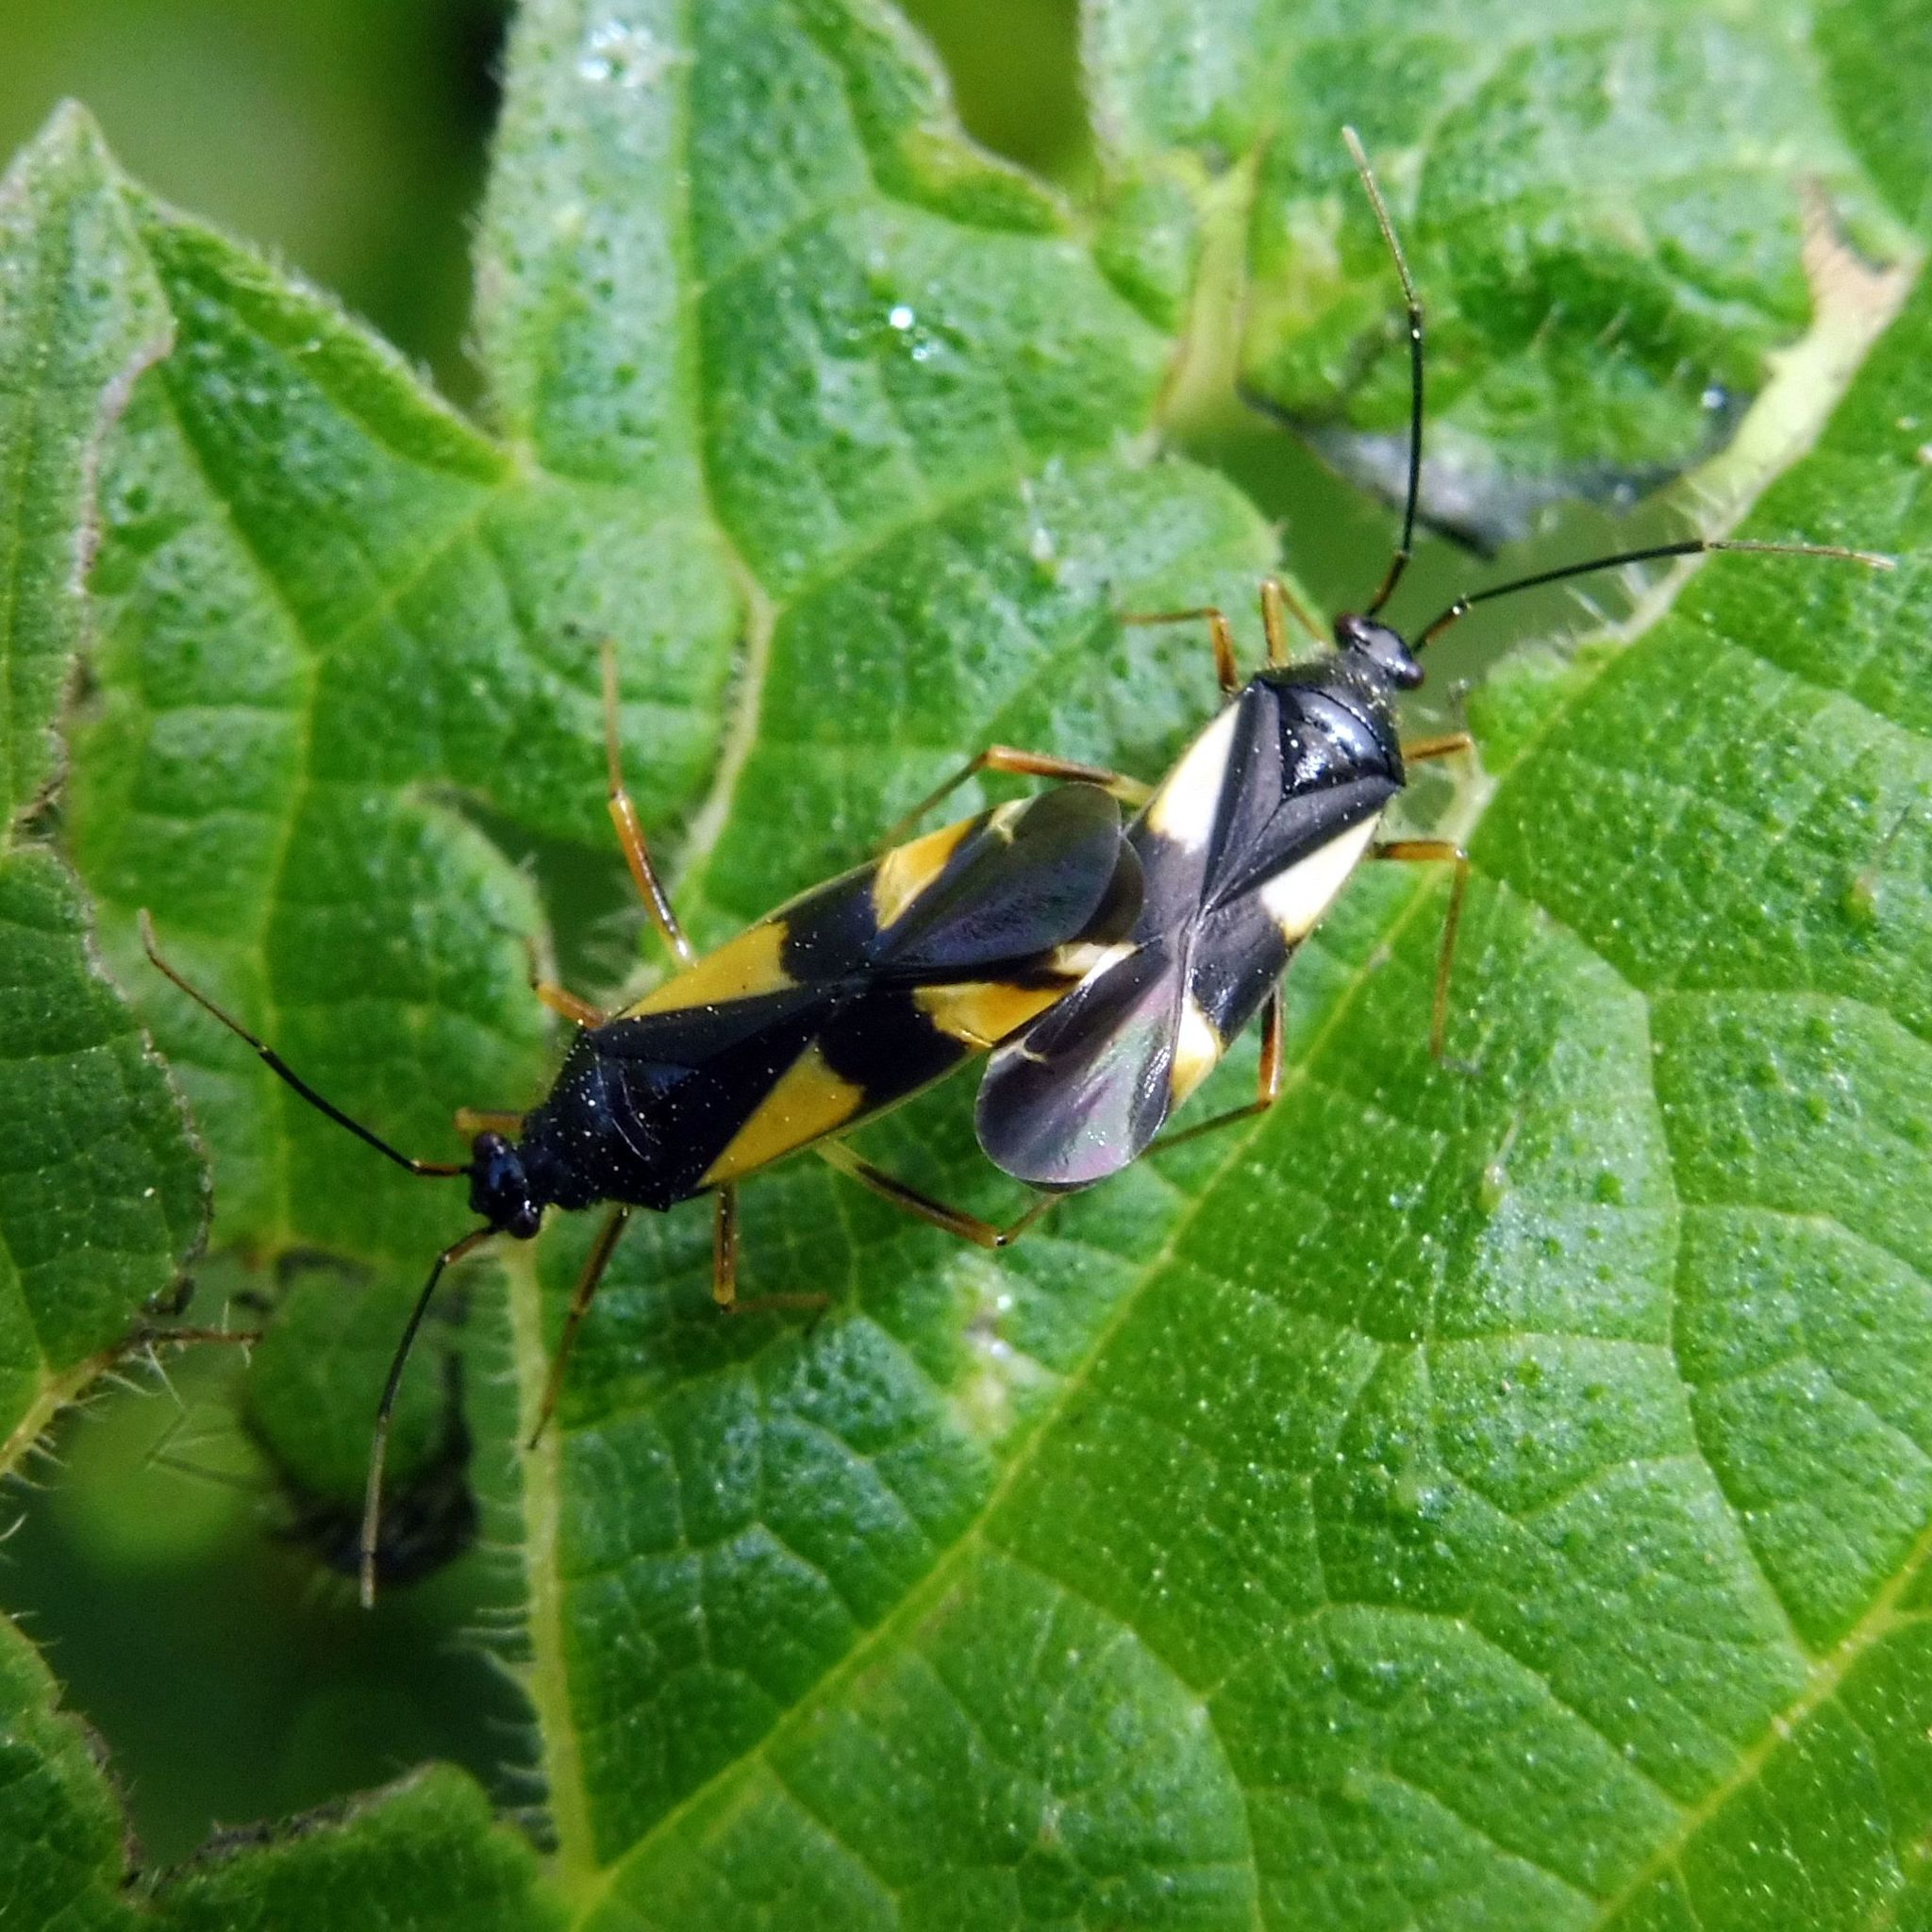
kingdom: Animalia
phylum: Arthropoda
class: Insecta
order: Hemiptera
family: Miridae
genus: Dryophilocoris
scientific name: Dryophilocoris flavoquadrimaculatus
